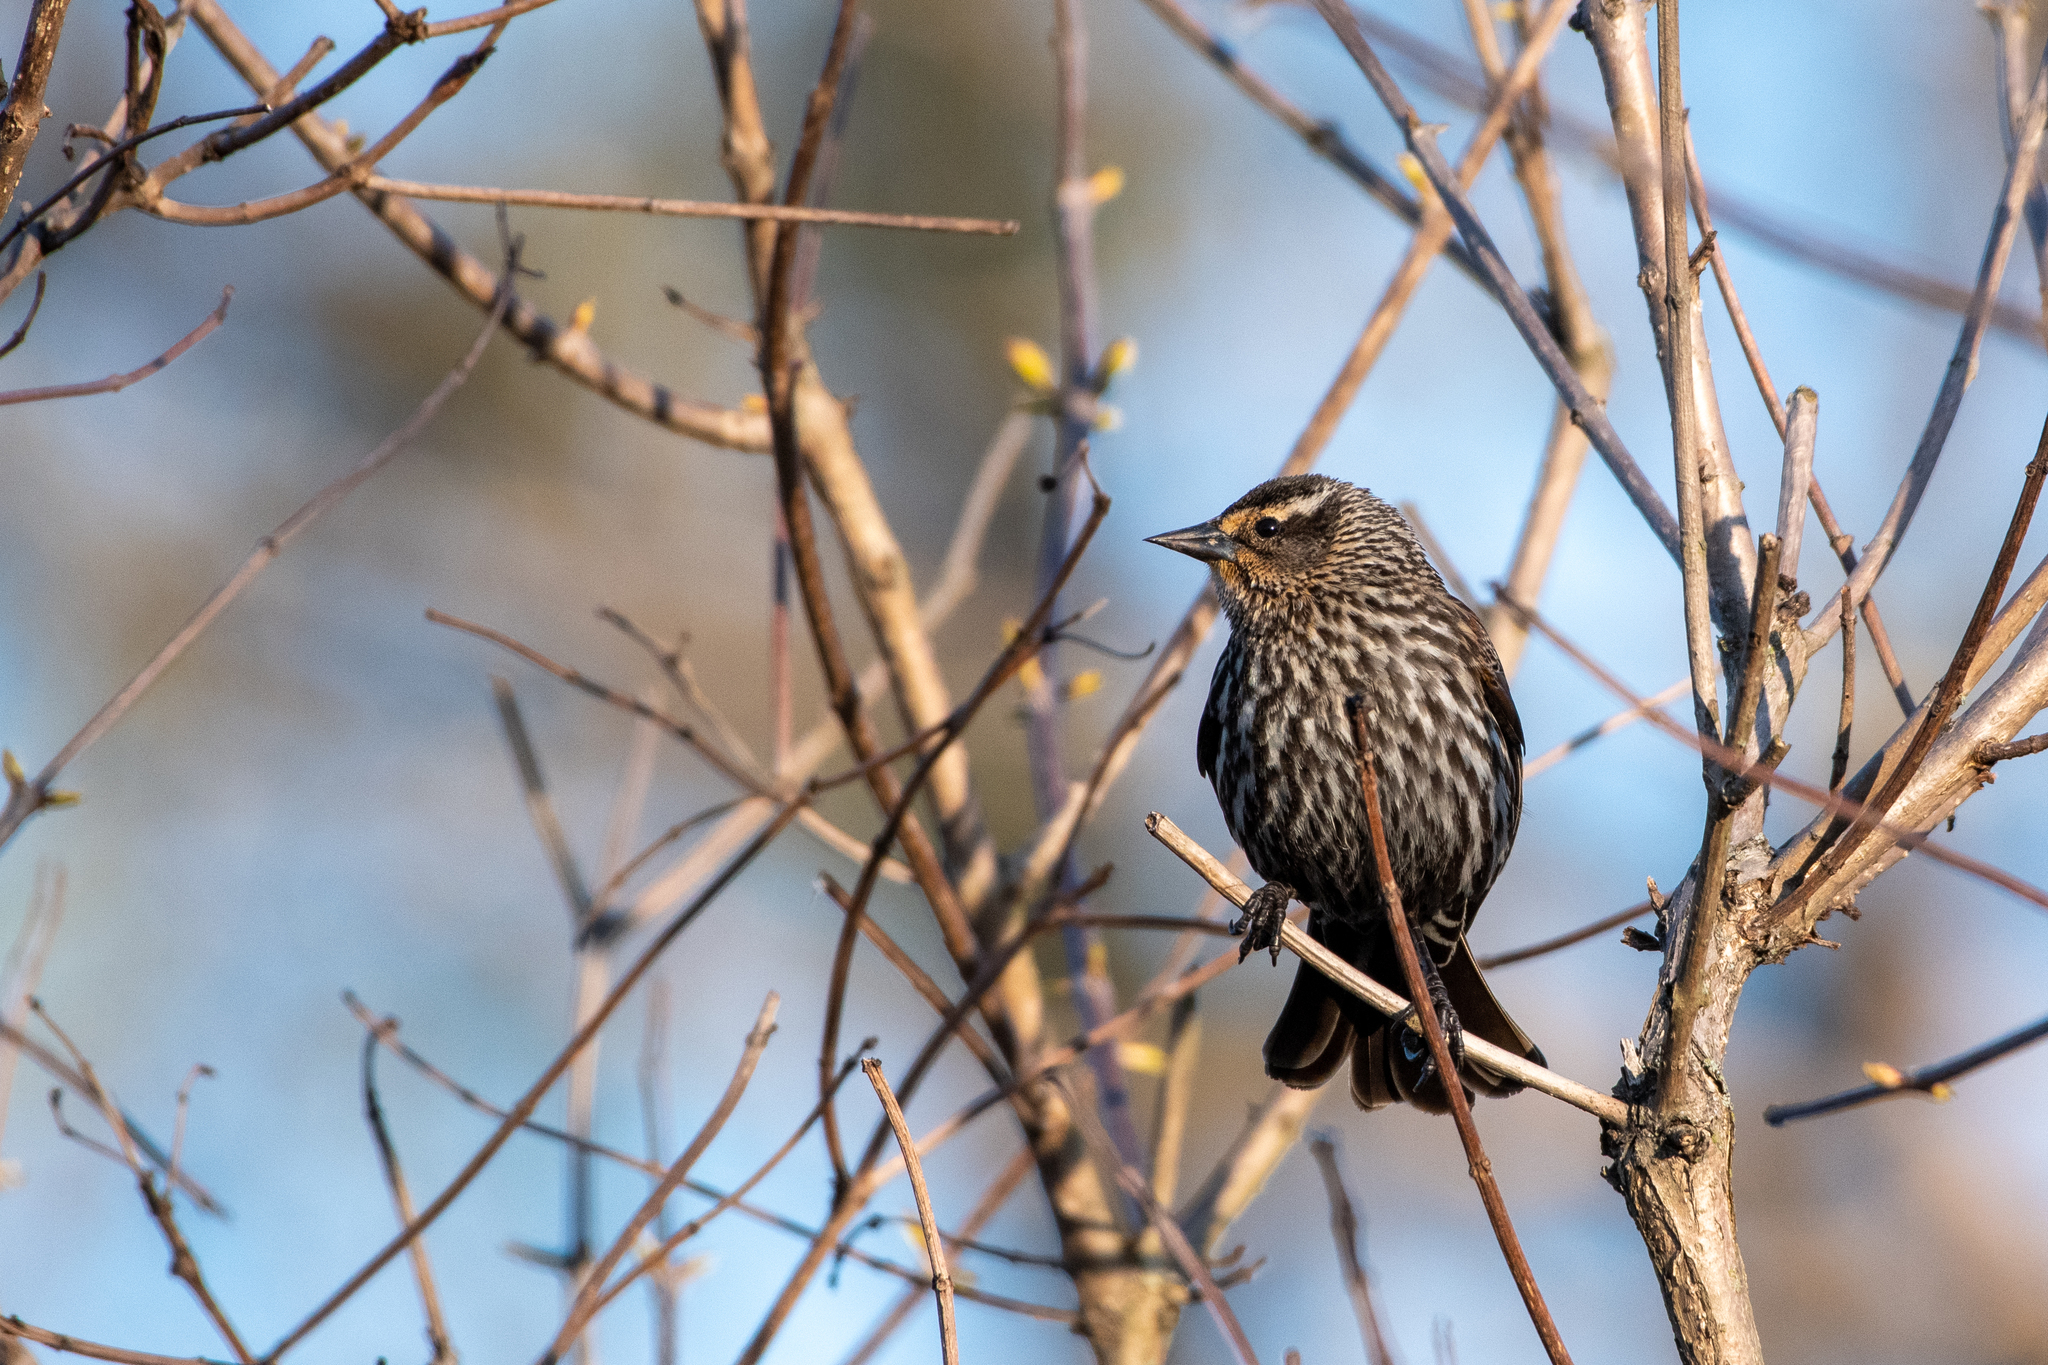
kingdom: Animalia
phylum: Chordata
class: Aves
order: Passeriformes
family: Icteridae
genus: Agelaius
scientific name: Agelaius phoeniceus
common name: Red-winged blackbird
